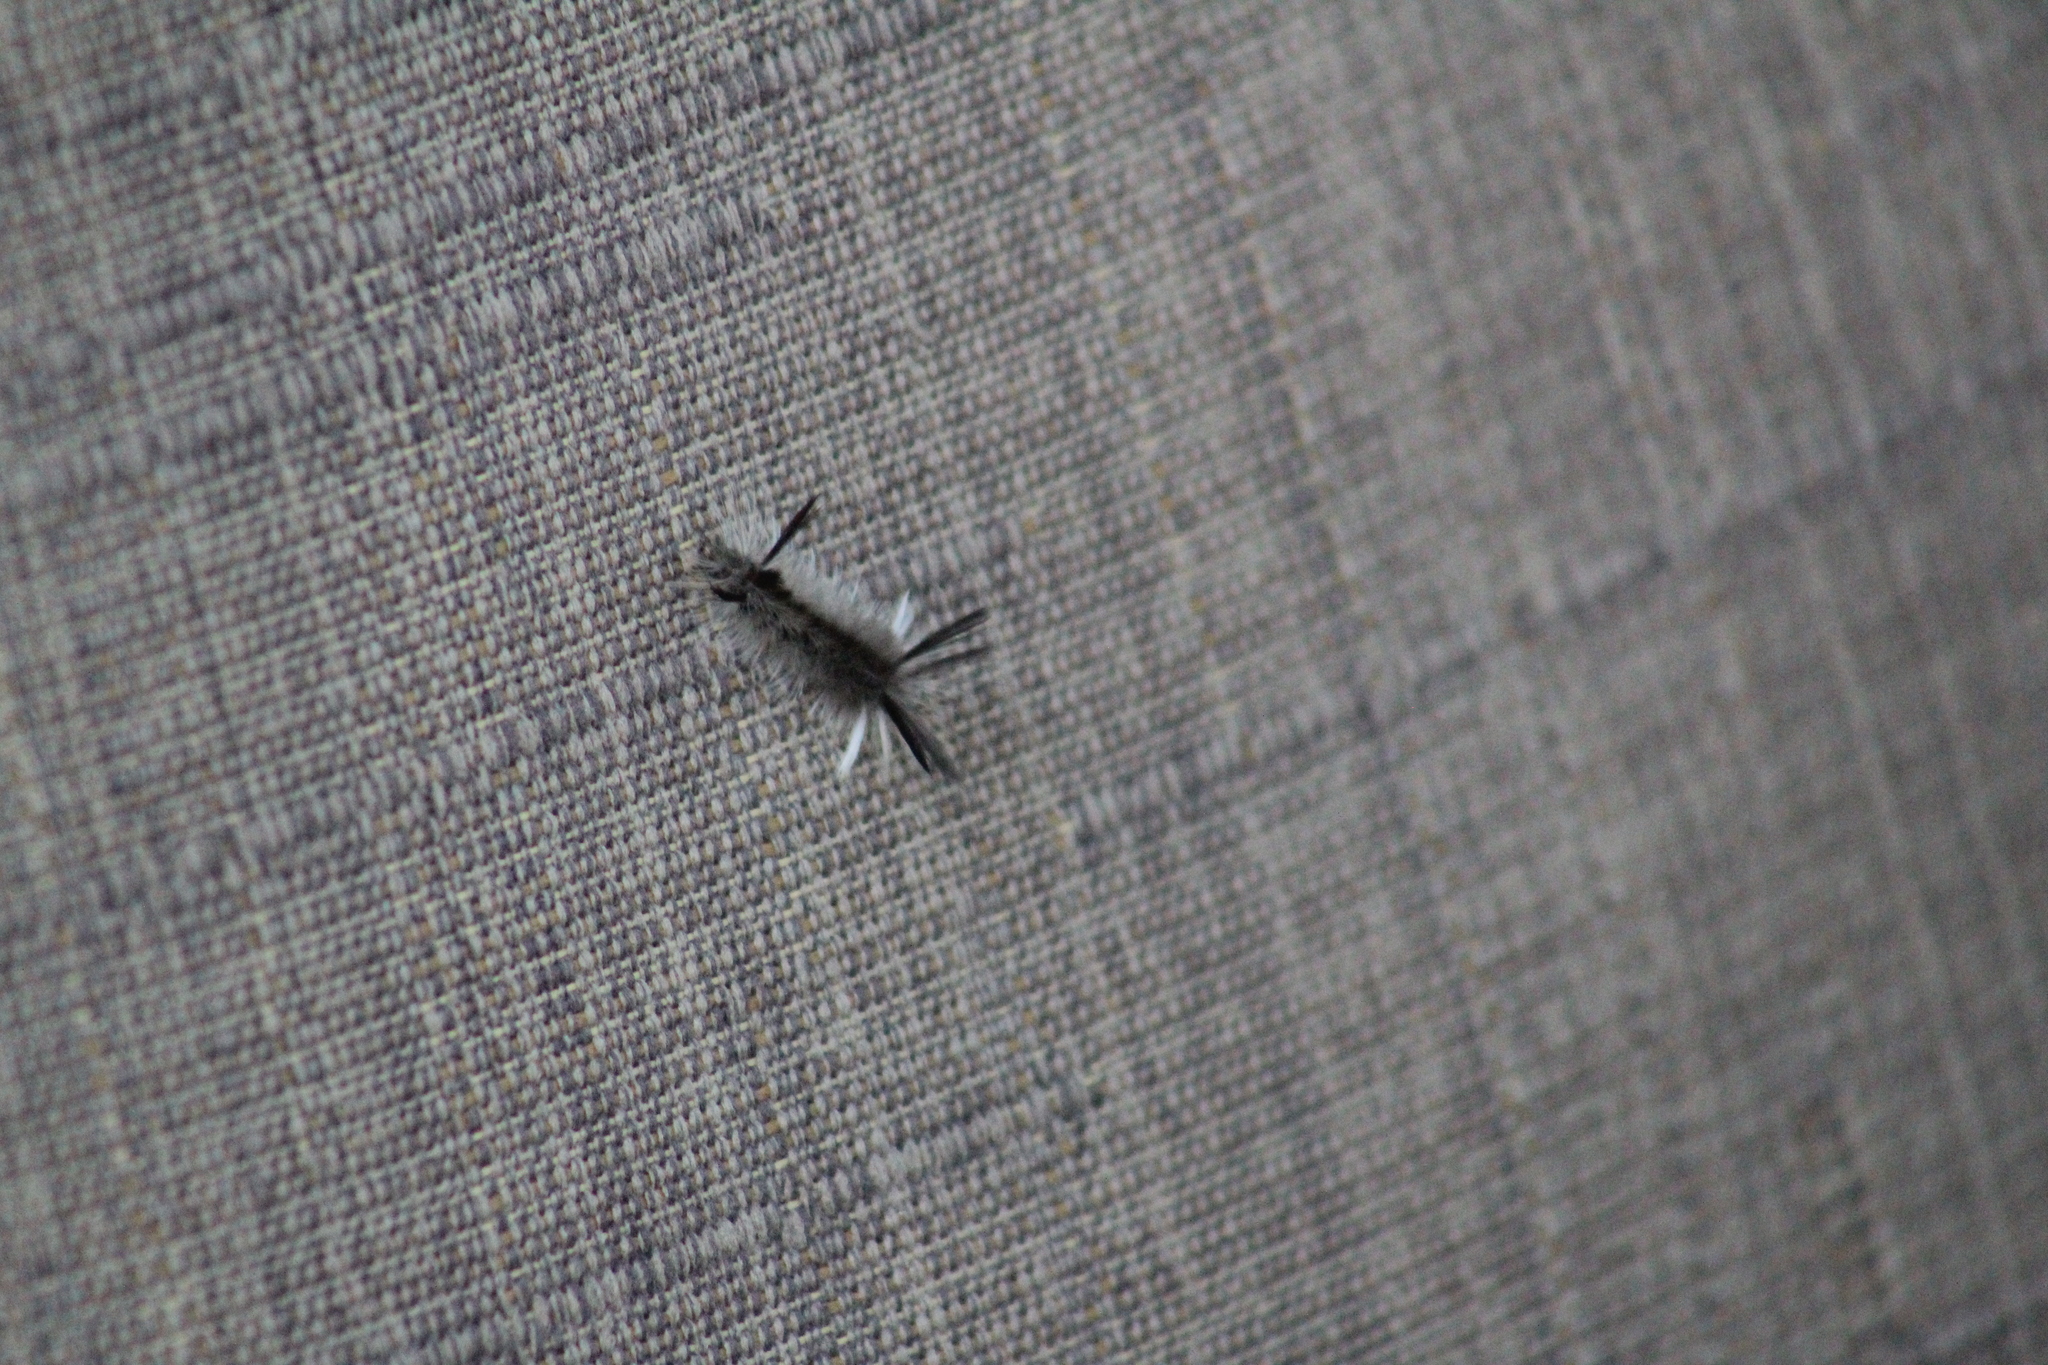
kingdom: Animalia
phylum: Arthropoda
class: Insecta
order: Lepidoptera
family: Erebidae
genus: Halysidota
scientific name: Halysidota tessellaris
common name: Banded tussock moth
